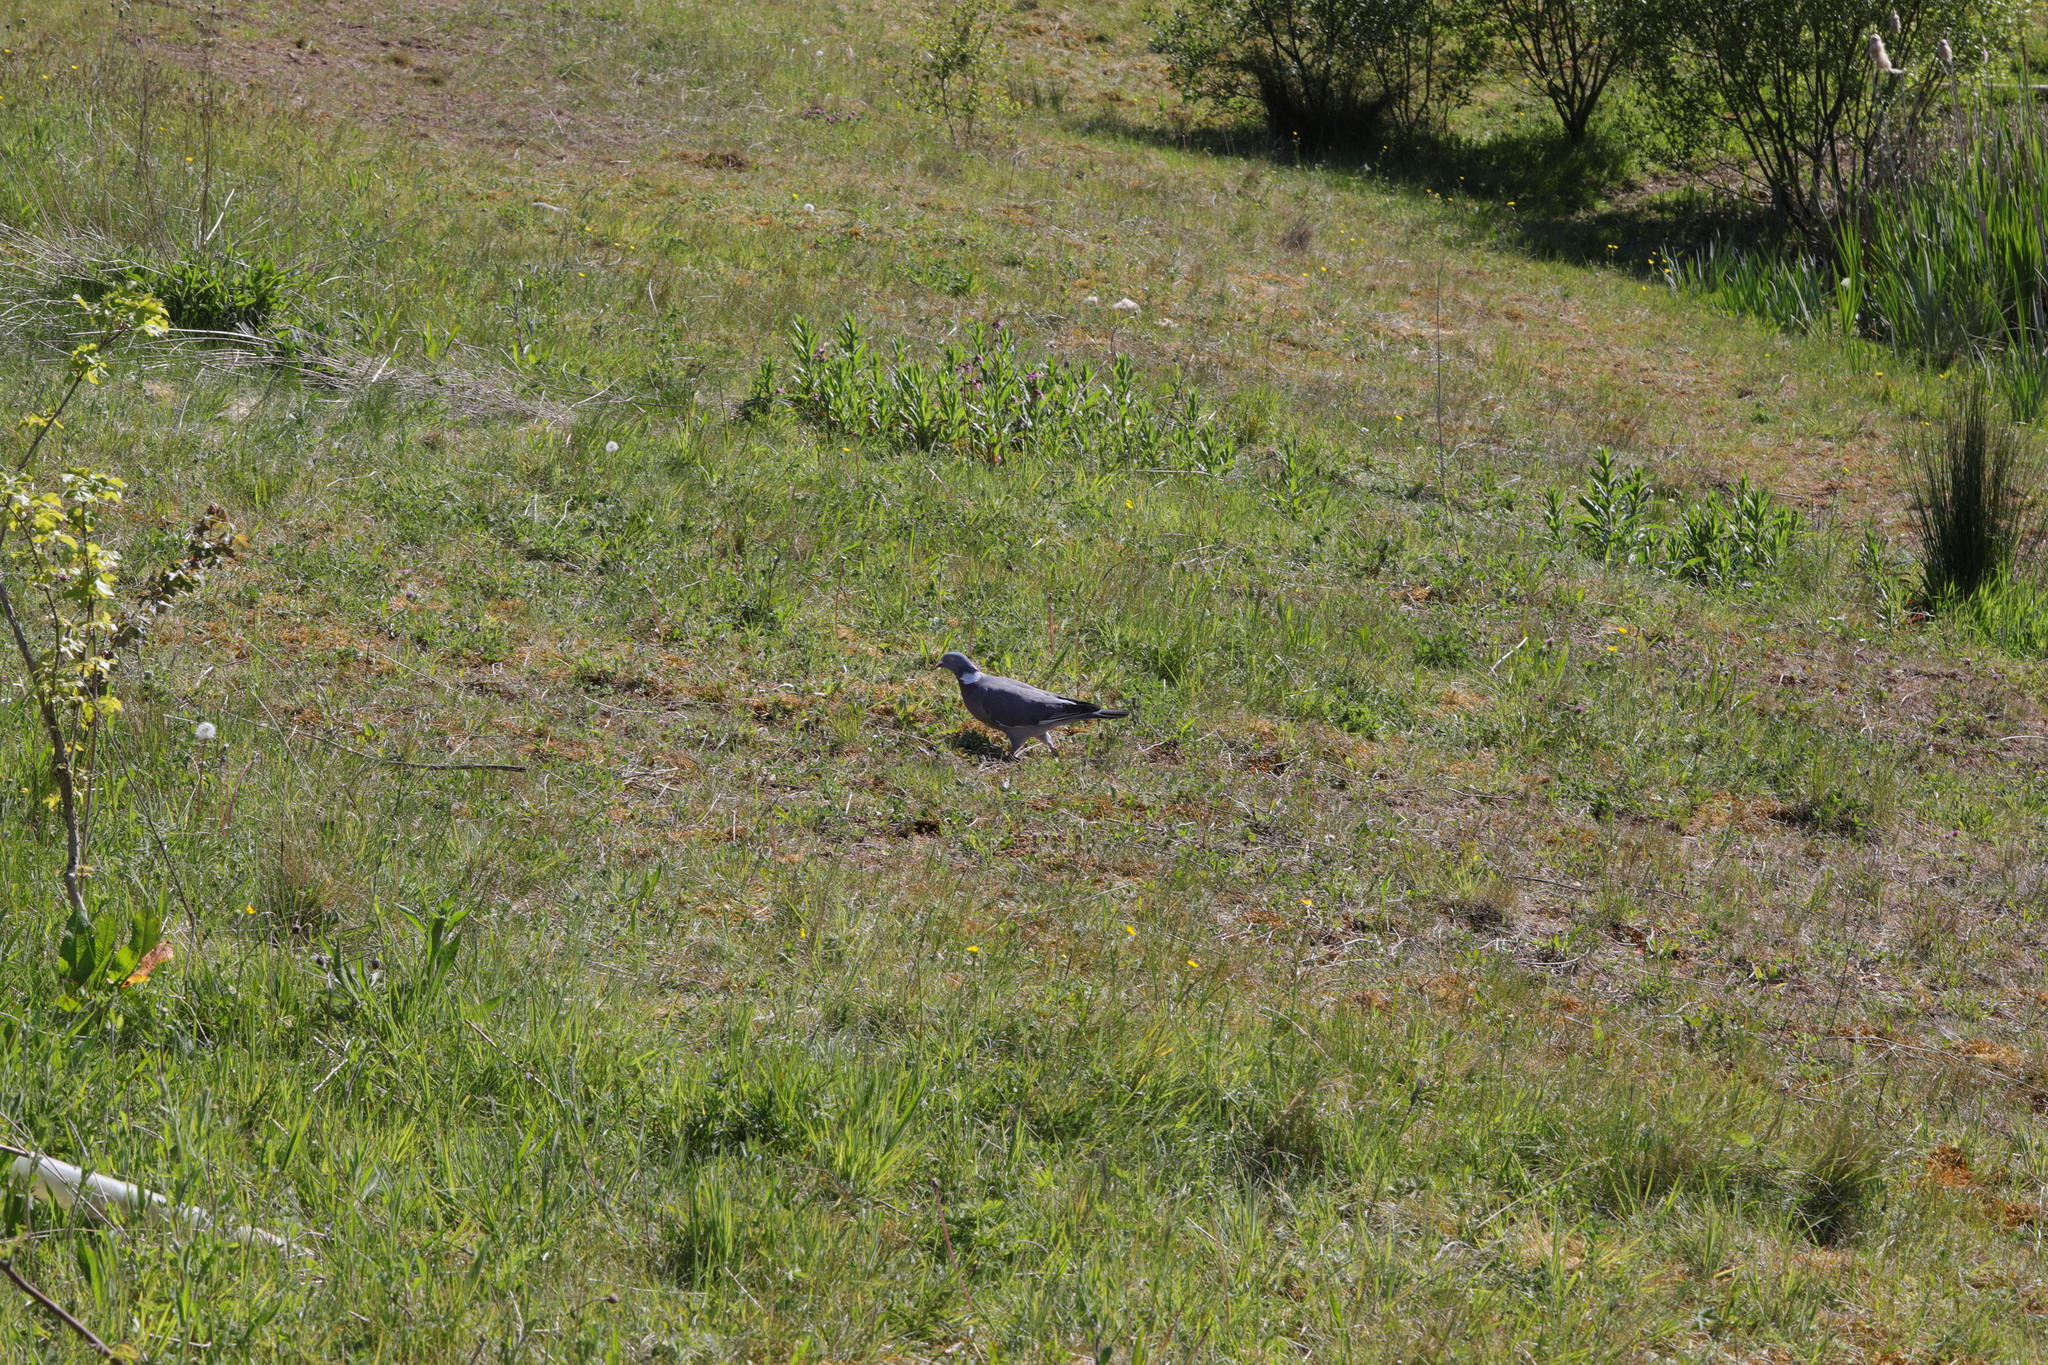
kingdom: Animalia
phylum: Chordata
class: Aves
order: Columbiformes
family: Columbidae
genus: Columba
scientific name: Columba palumbus
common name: Common wood pigeon
